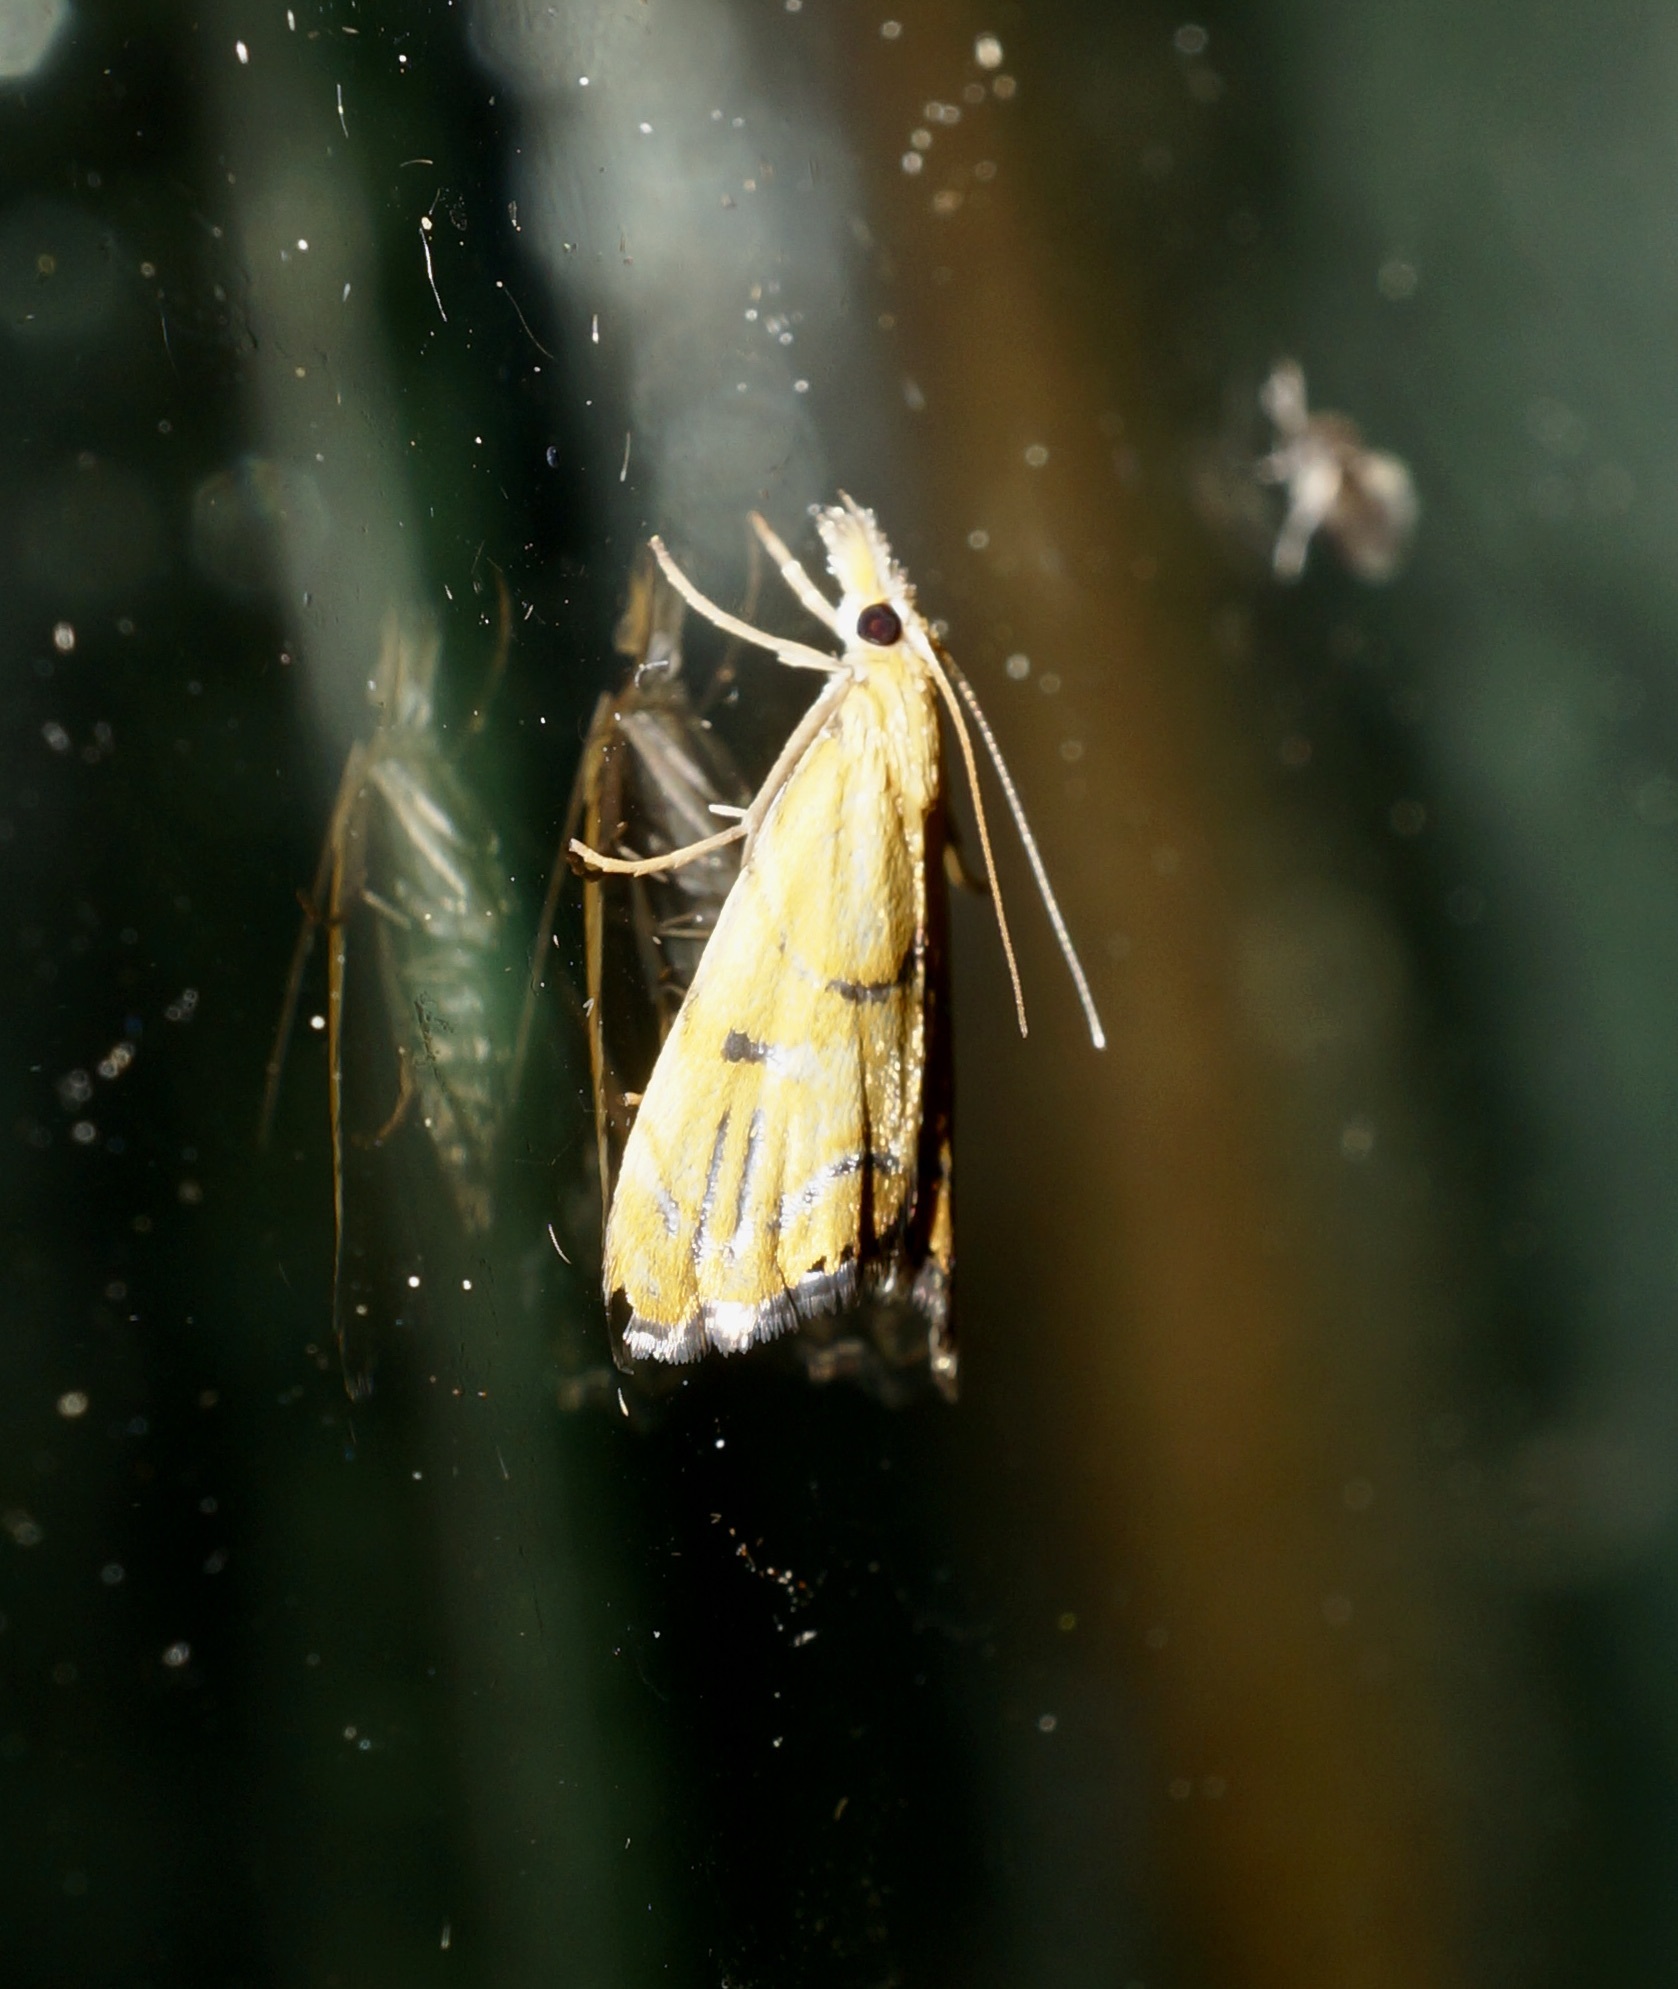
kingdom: Animalia
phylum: Arthropoda
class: Insecta
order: Lepidoptera
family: Crambidae
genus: Glaucocharis
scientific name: Glaucocharis auriscriptella
